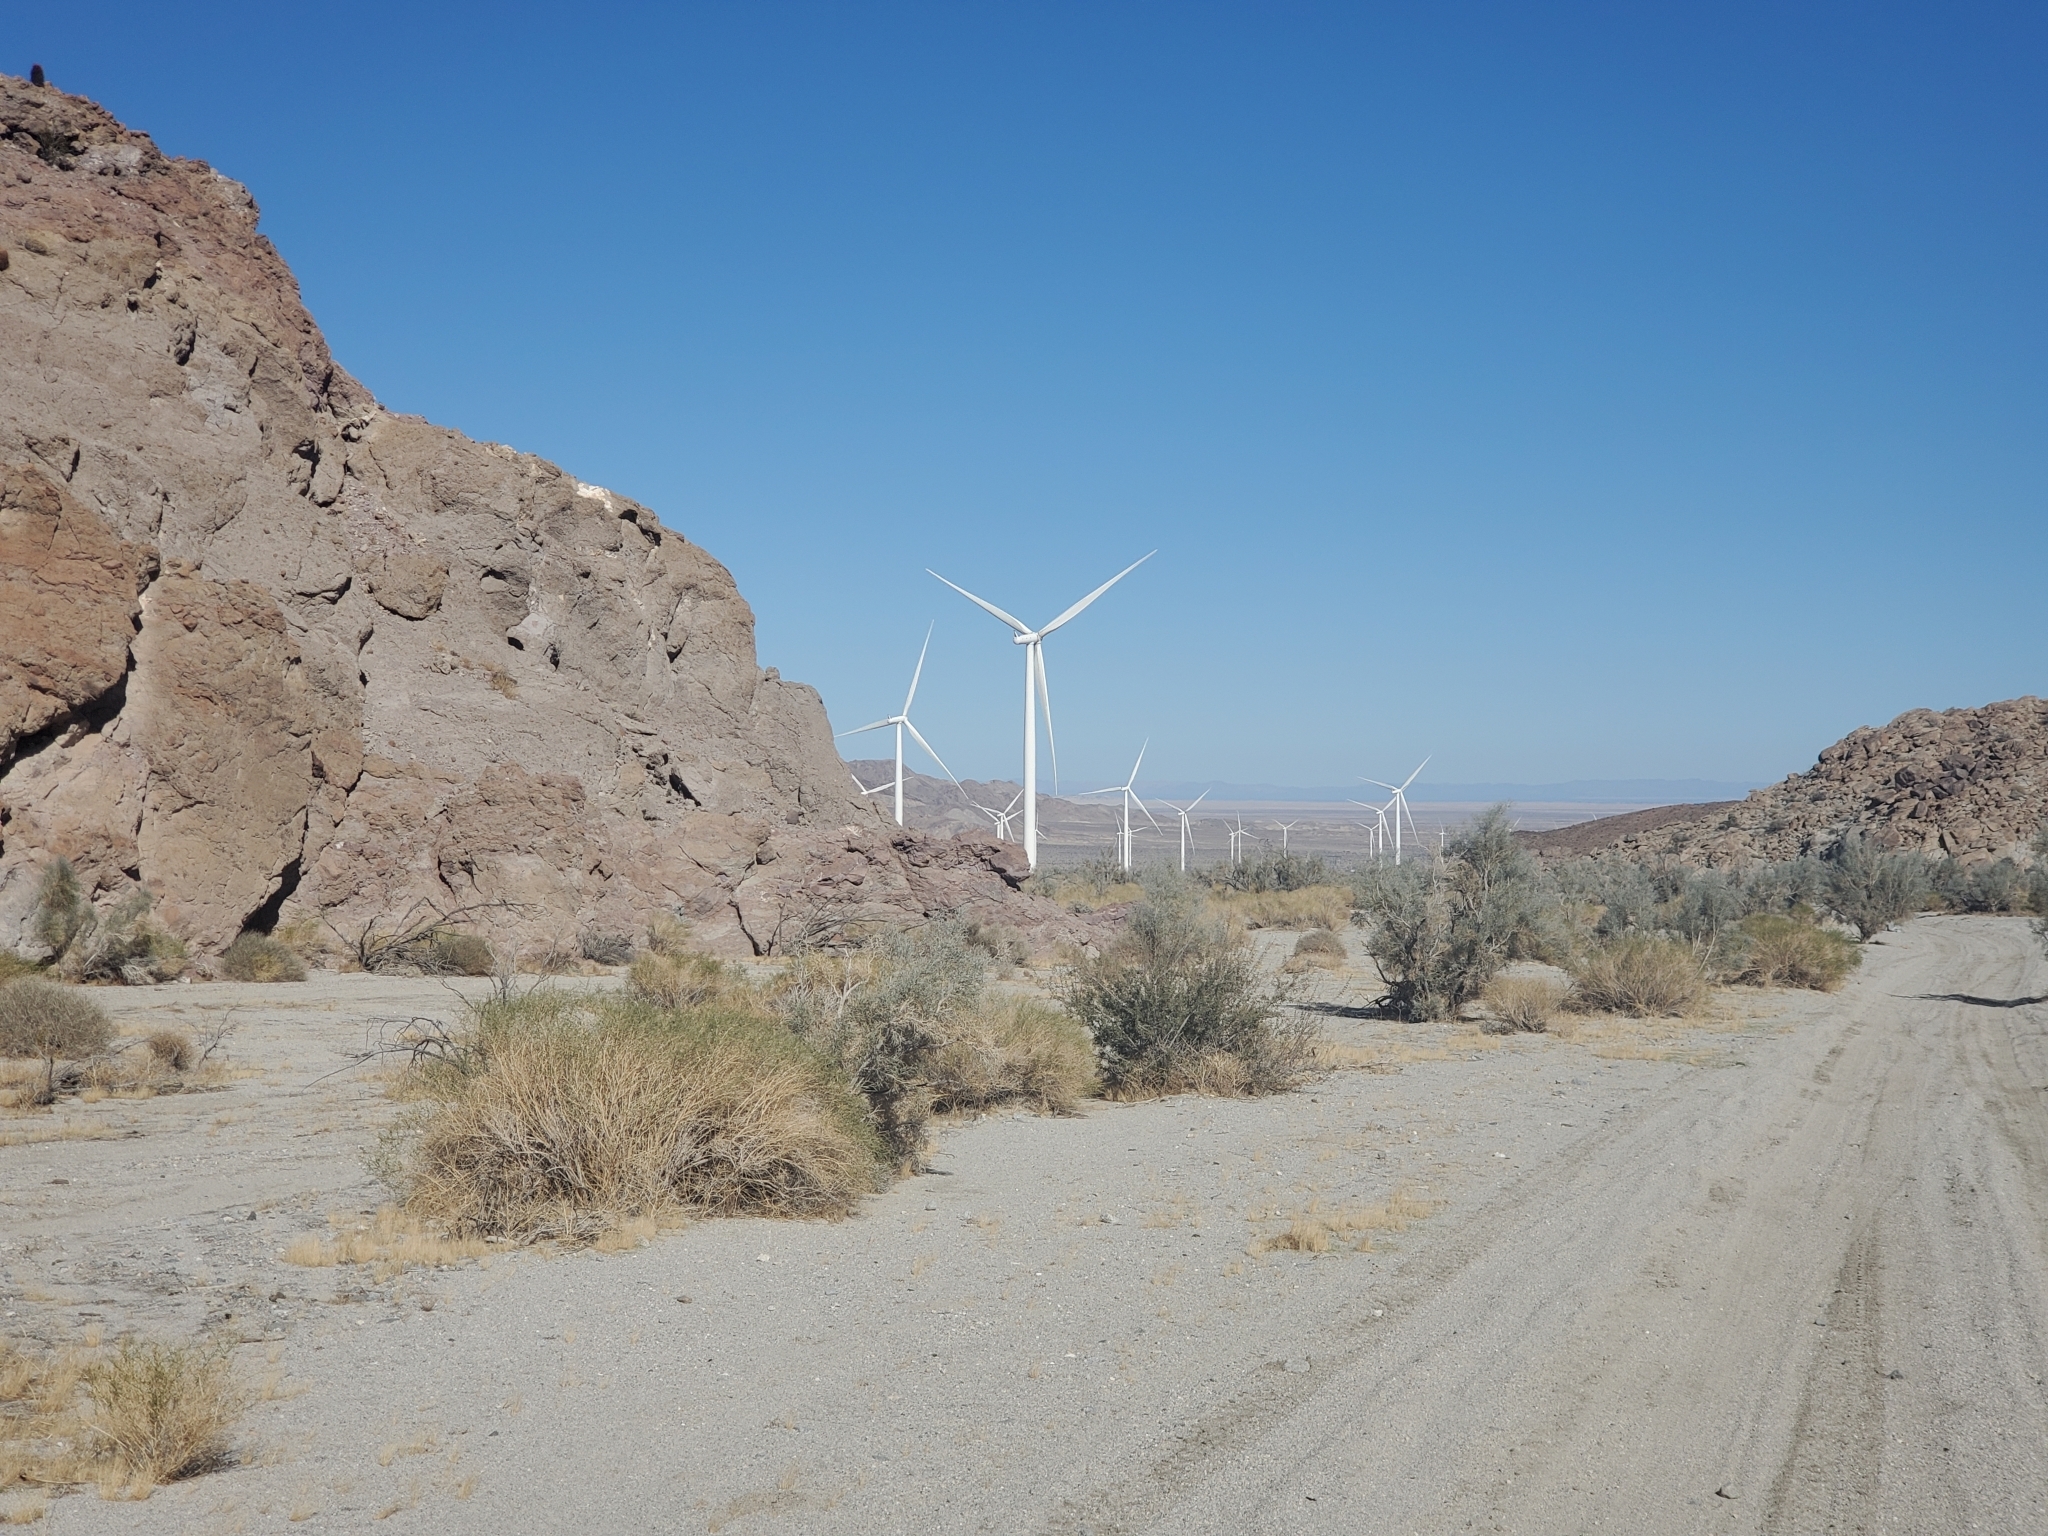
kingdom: Plantae
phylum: Tracheophyta
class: Magnoliopsida
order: Lamiales
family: Bignoniaceae
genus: Chilopsis
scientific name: Chilopsis linearis
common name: Desert-willow
